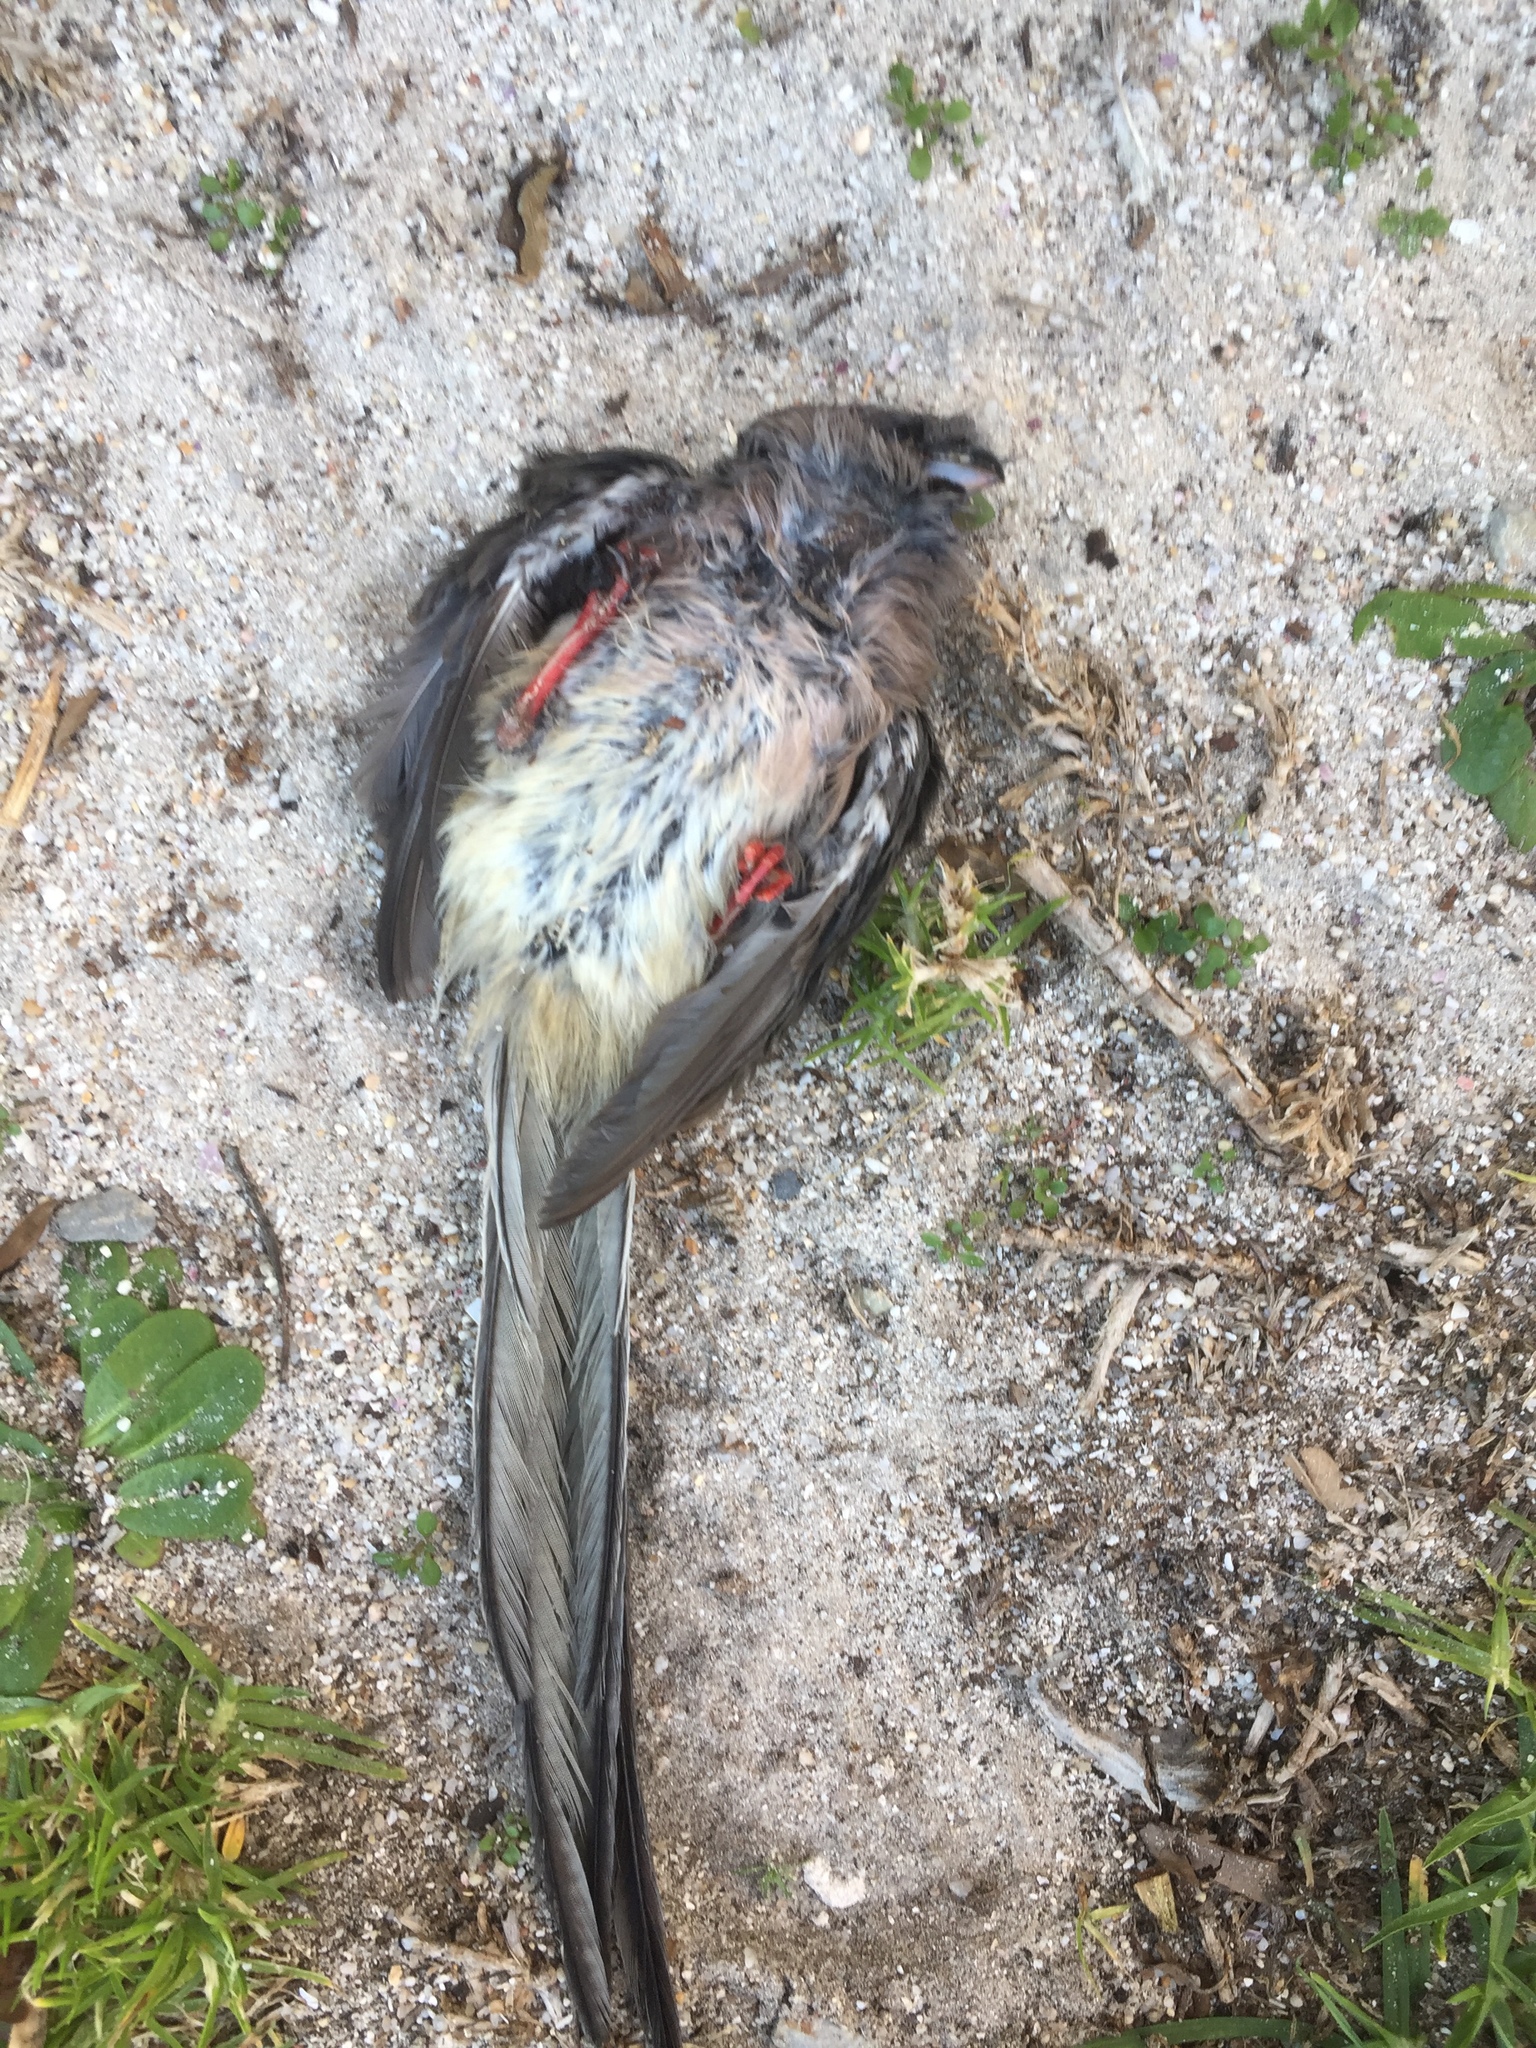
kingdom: Animalia
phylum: Chordata
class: Aves
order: Coliiformes
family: Coliidae
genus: Colius
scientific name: Colius colius
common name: White-backed mousebird
